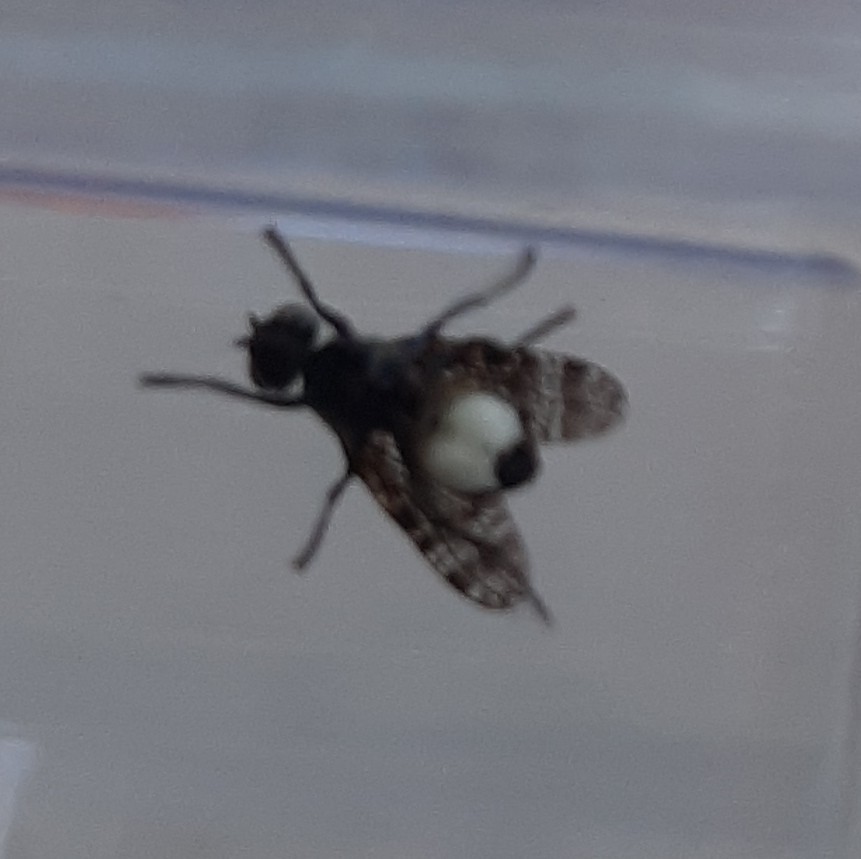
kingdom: Animalia
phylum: Arthropoda
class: Insecta
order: Diptera
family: Platystomatidae
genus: Platystoma
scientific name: Platystoma seminationis
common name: Fly
